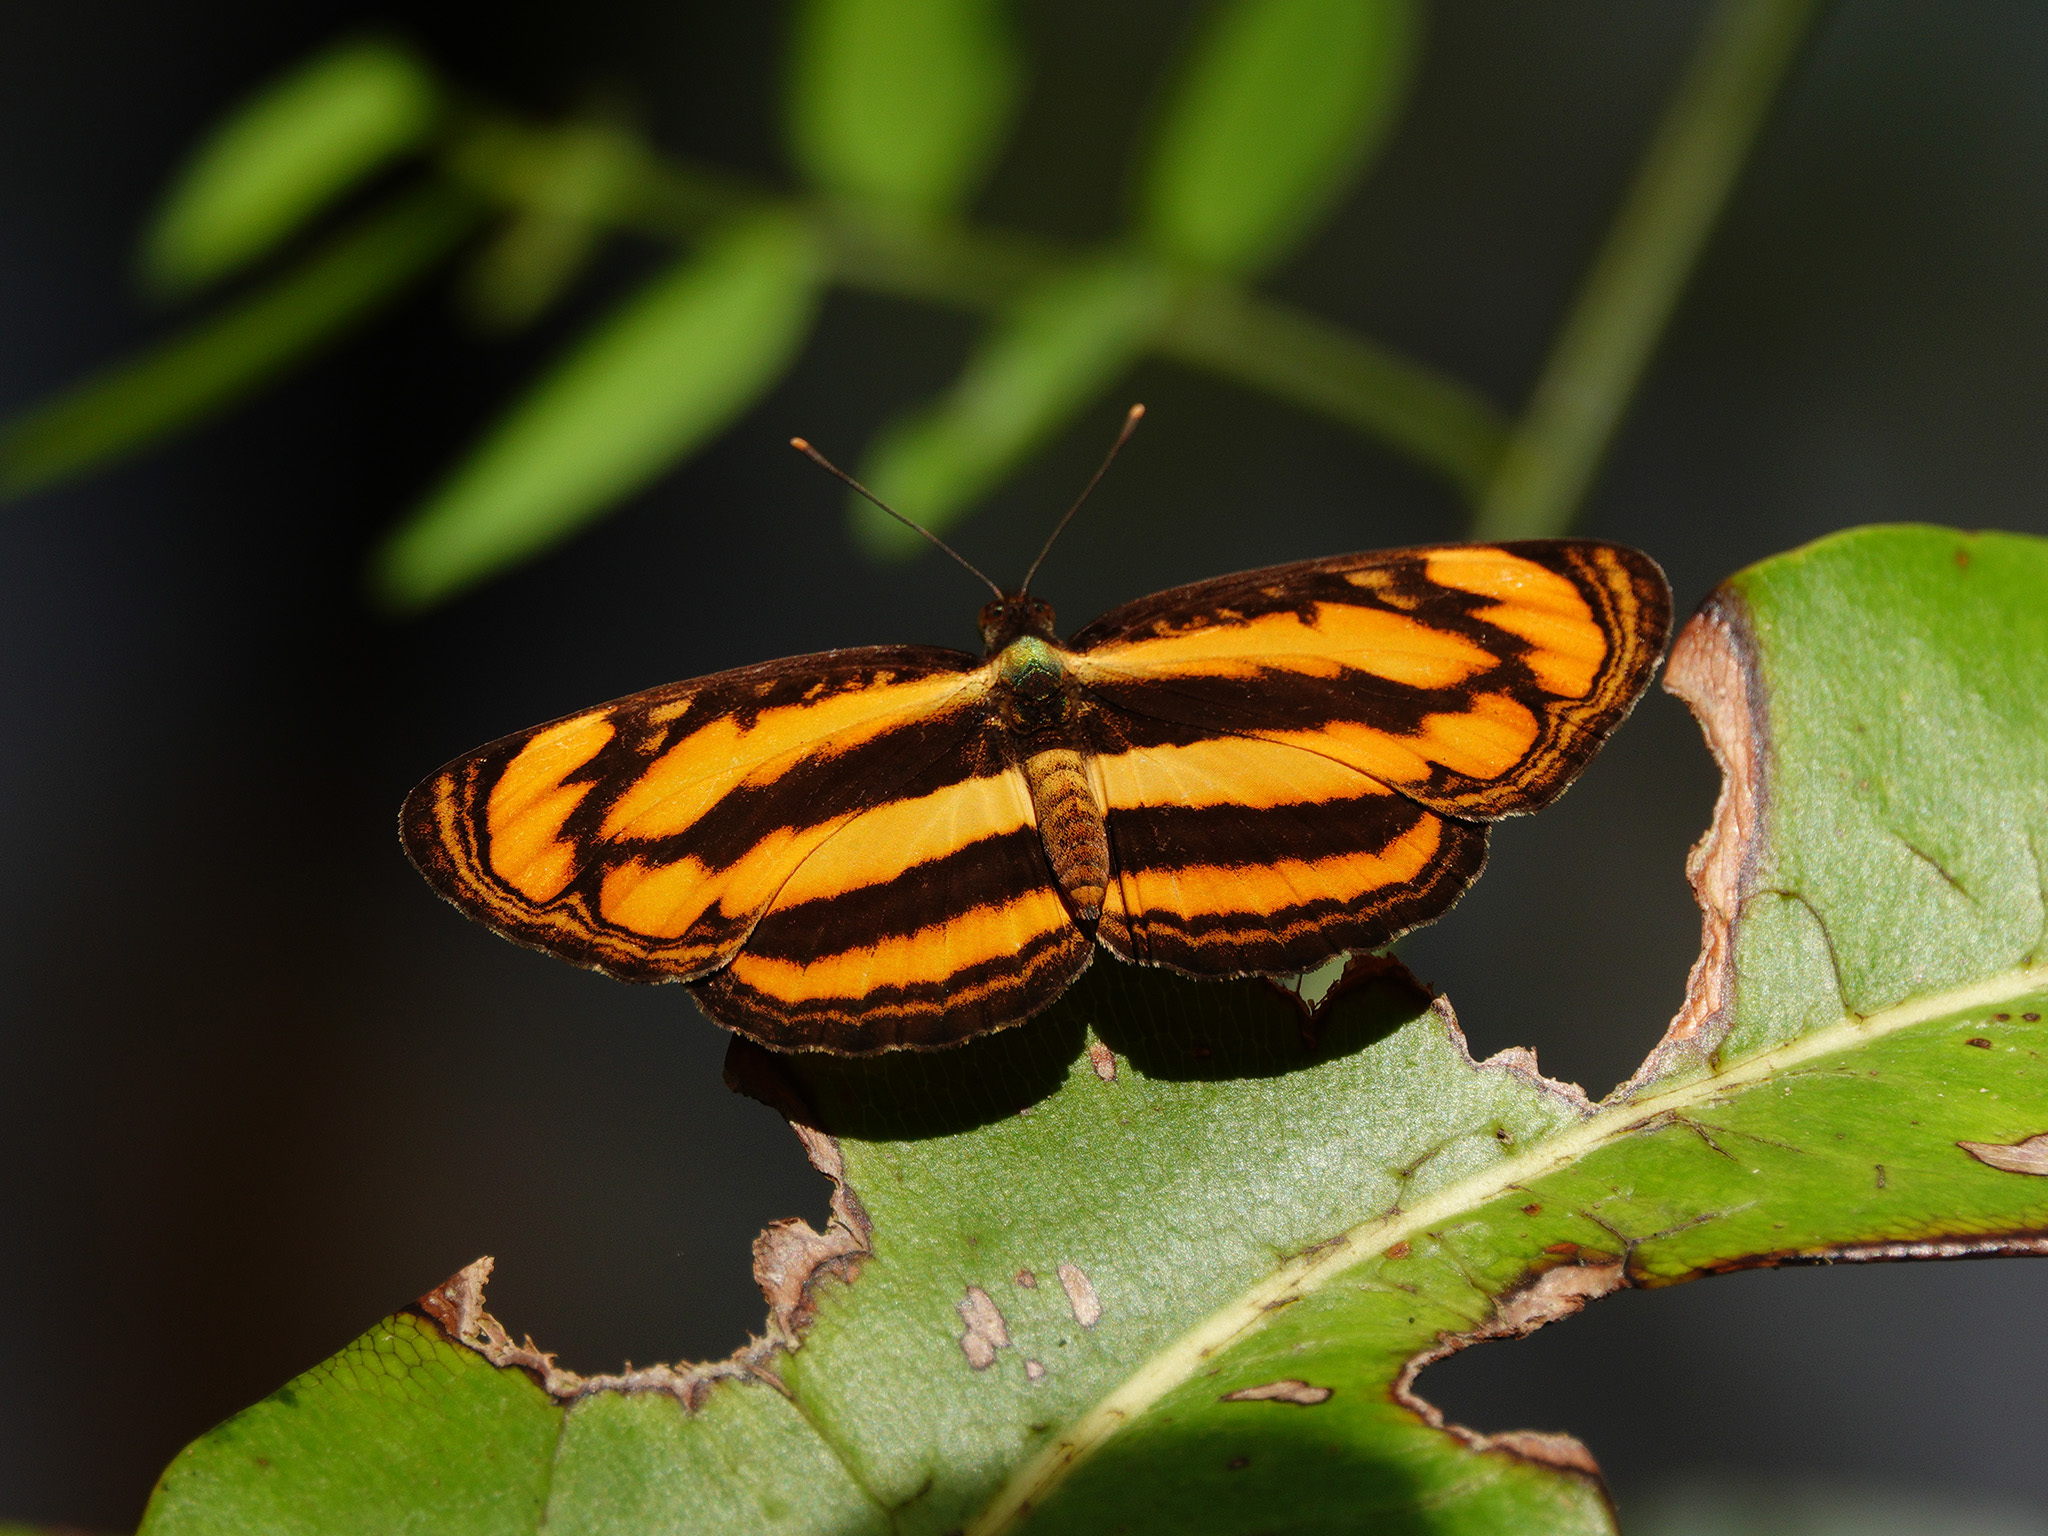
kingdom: Animalia
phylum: Arthropoda
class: Insecta
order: Lepidoptera
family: Nymphalidae
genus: Pantoporia
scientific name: Pantoporia paraka
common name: Perak lascar
